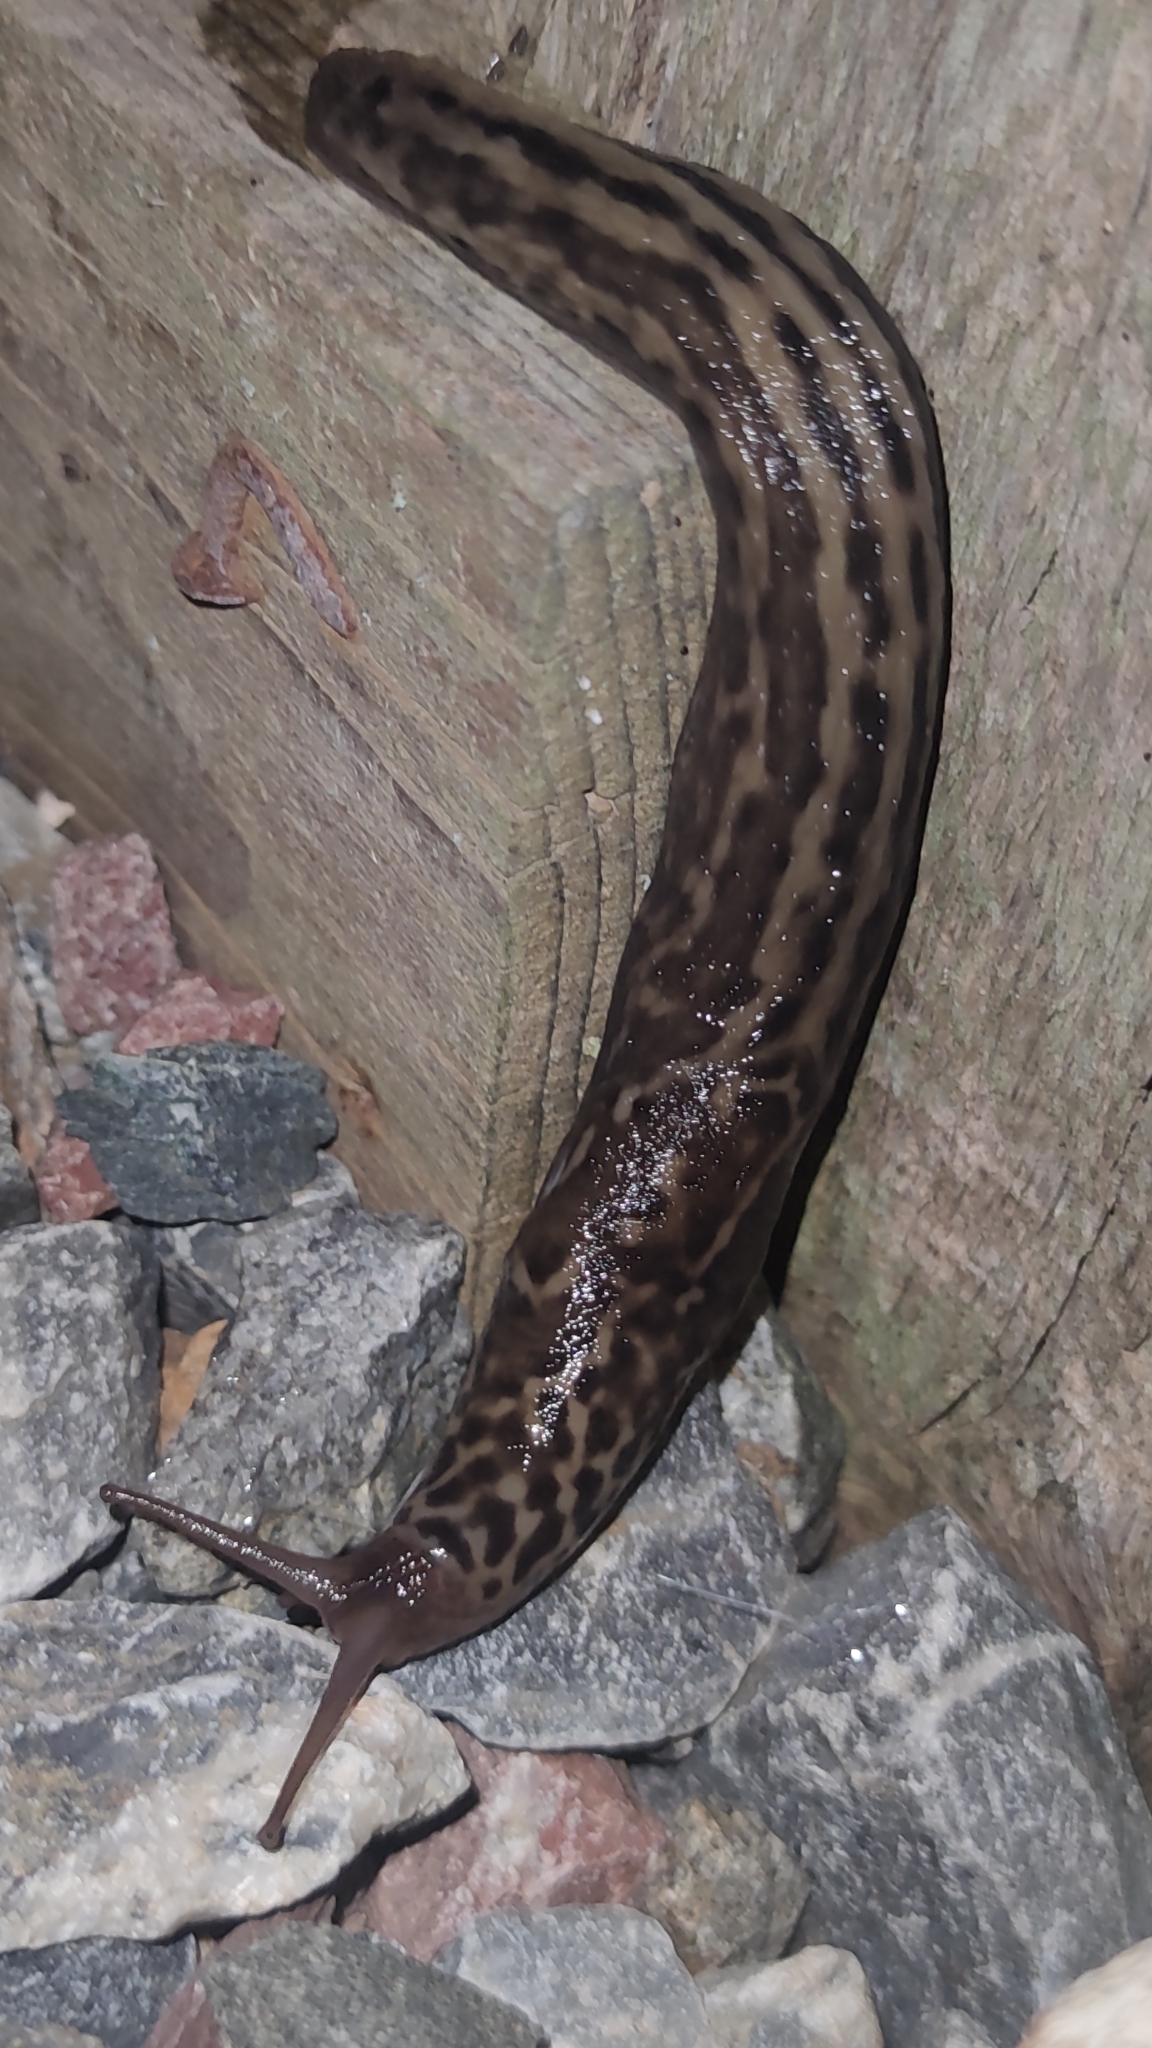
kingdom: Animalia
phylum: Mollusca
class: Gastropoda
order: Stylommatophora
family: Limacidae
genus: Limax
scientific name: Limax maximus
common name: Great grey slug
